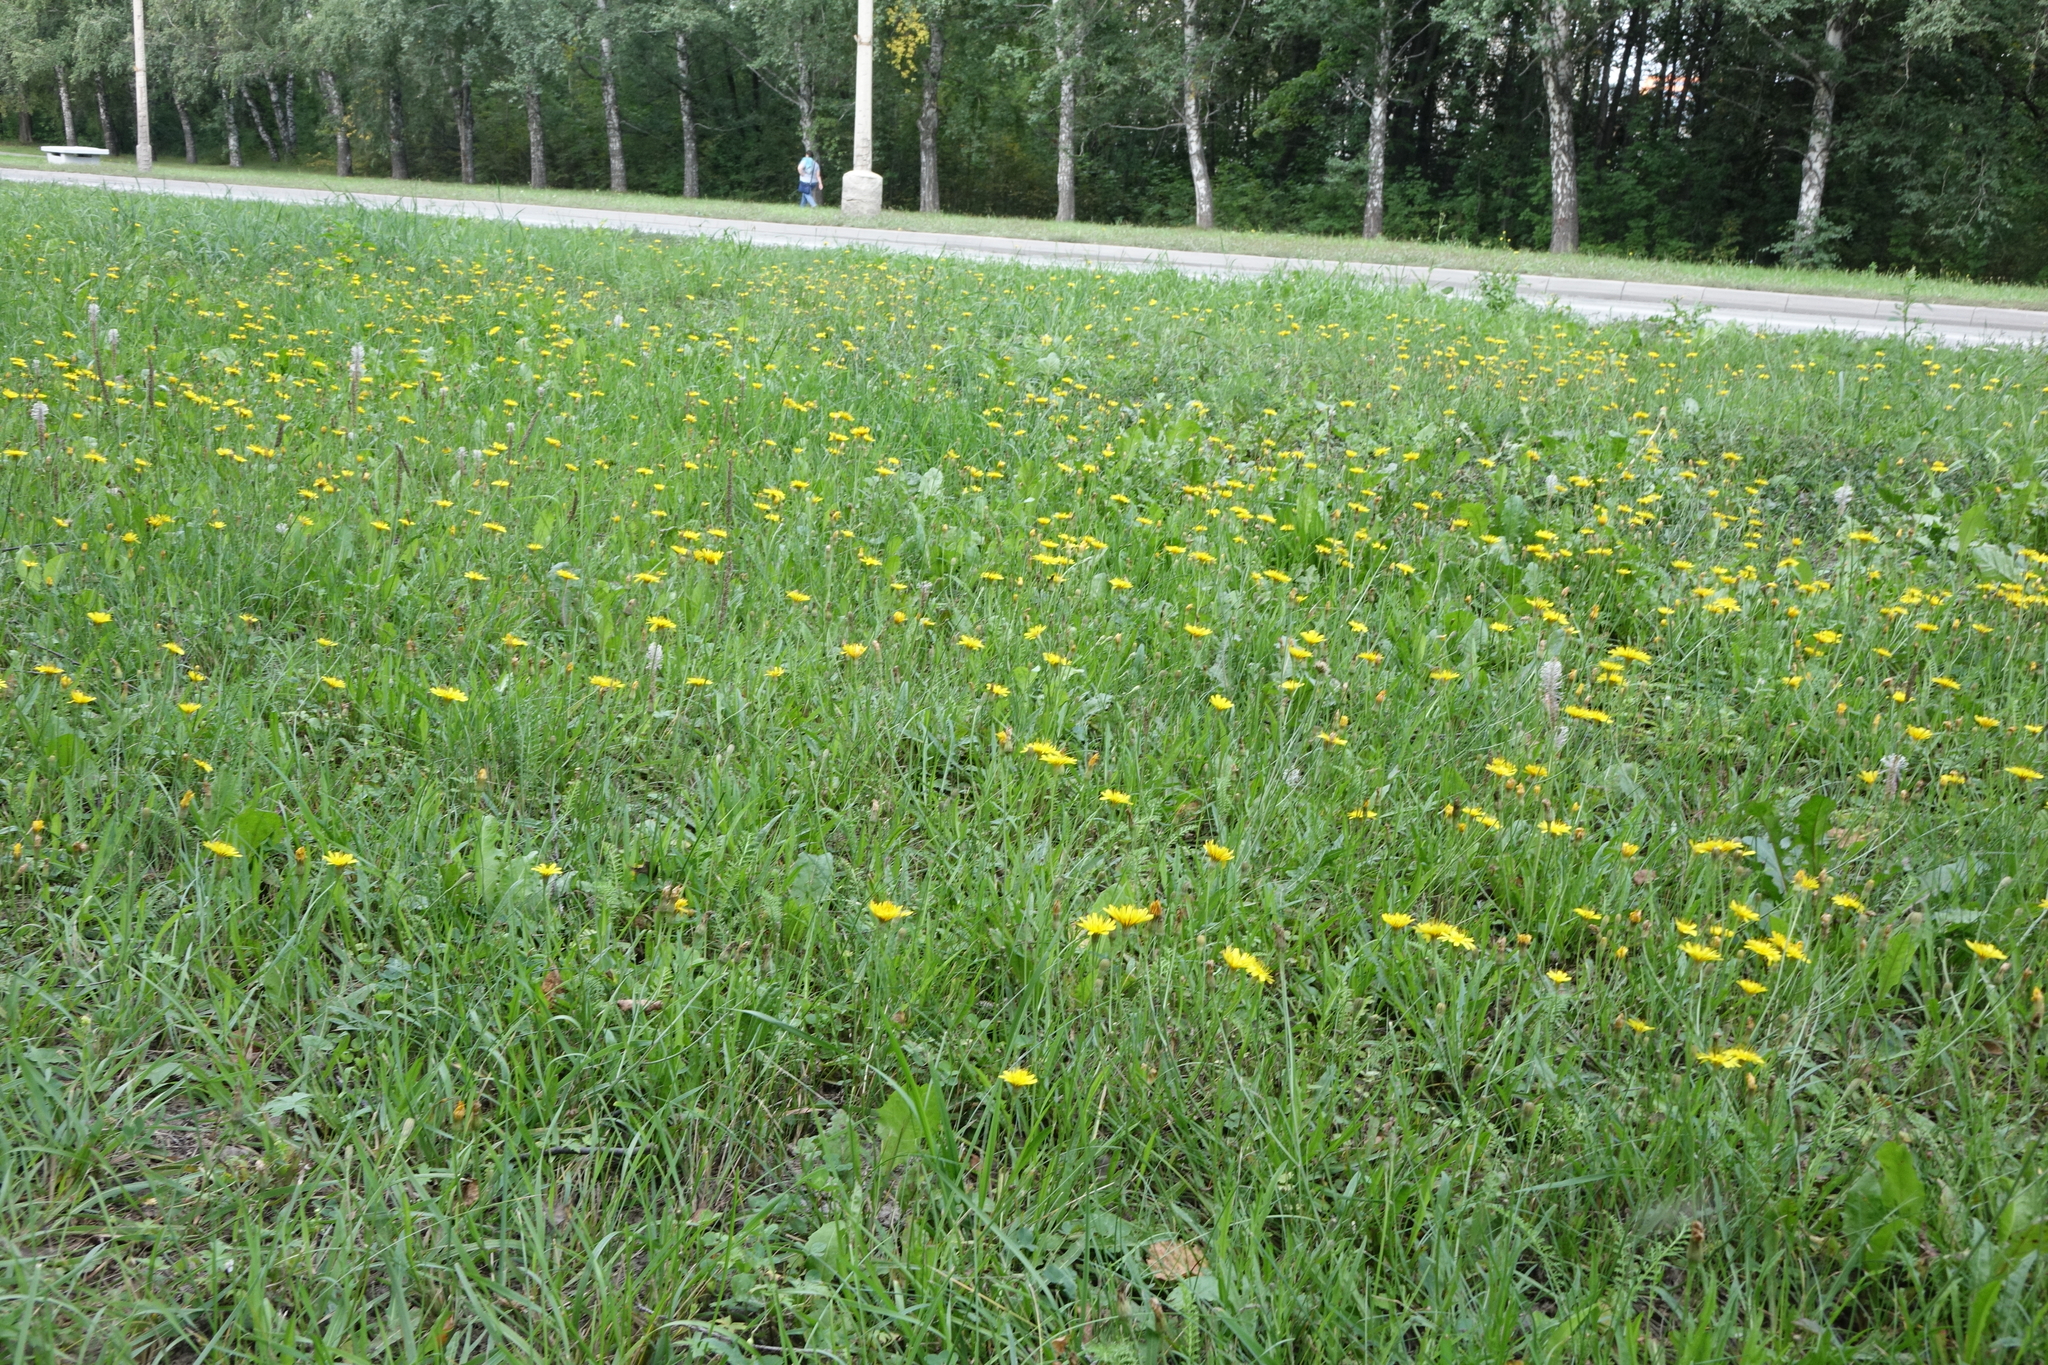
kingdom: Plantae
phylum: Tracheophyta
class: Magnoliopsida
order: Asterales
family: Asteraceae
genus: Scorzoneroides
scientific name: Scorzoneroides autumnalis
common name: Autumn hawkbit
